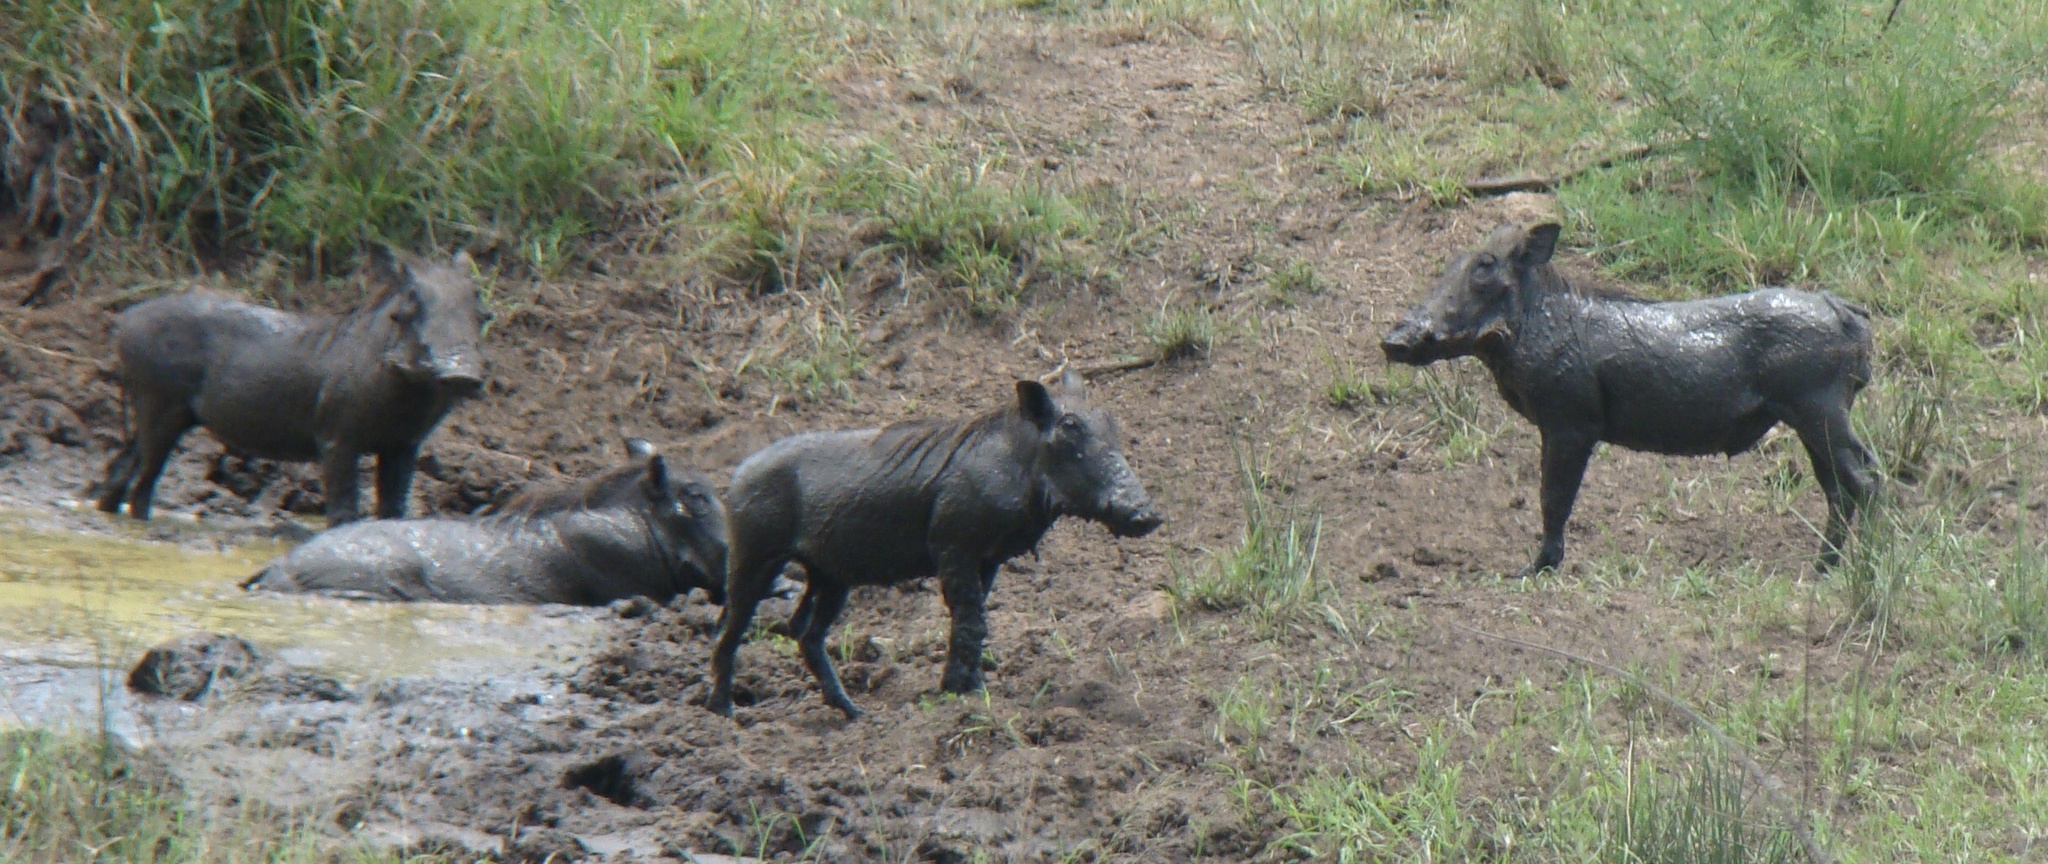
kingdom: Animalia
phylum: Chordata
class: Mammalia
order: Artiodactyla
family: Suidae
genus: Phacochoerus
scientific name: Phacochoerus africanus
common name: Common warthog
